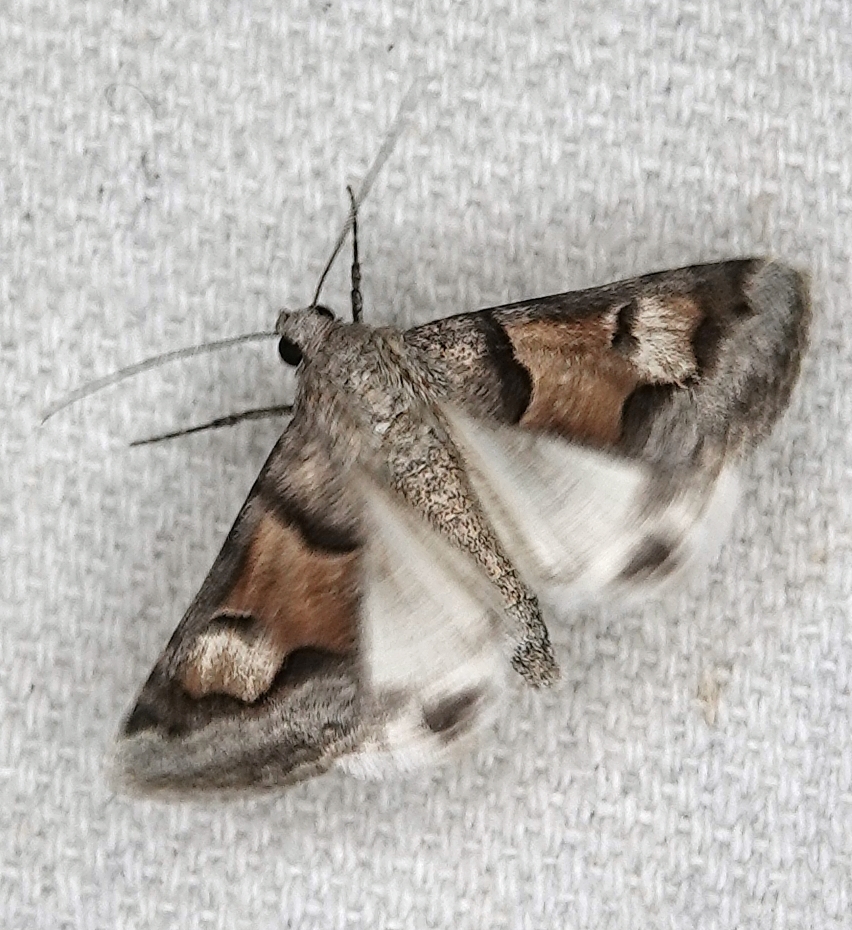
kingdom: Animalia
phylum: Arthropoda
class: Insecta
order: Lepidoptera
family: Erebidae
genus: Drasteria
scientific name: Drasteria pallescens
